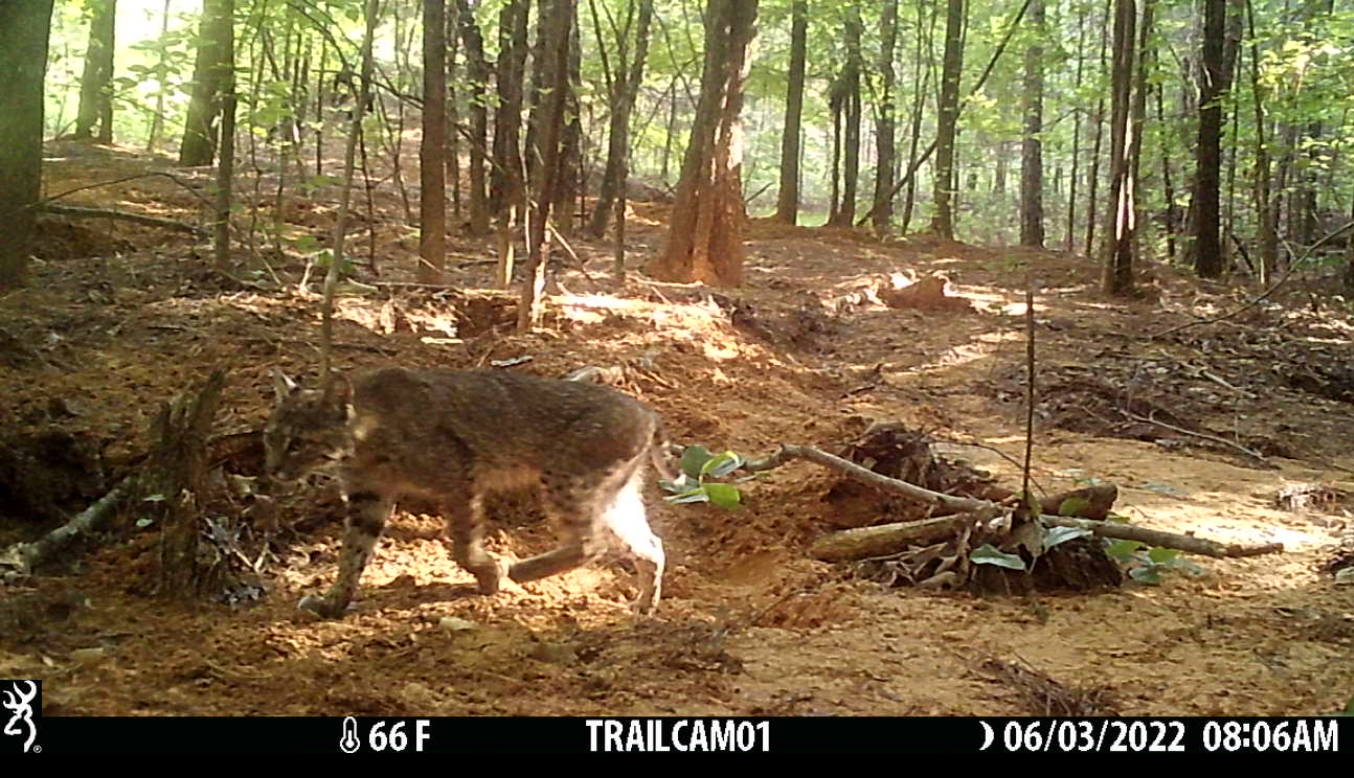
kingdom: Animalia
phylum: Chordata
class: Mammalia
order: Carnivora
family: Felidae
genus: Lynx
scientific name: Lynx rufus
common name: Bobcat
